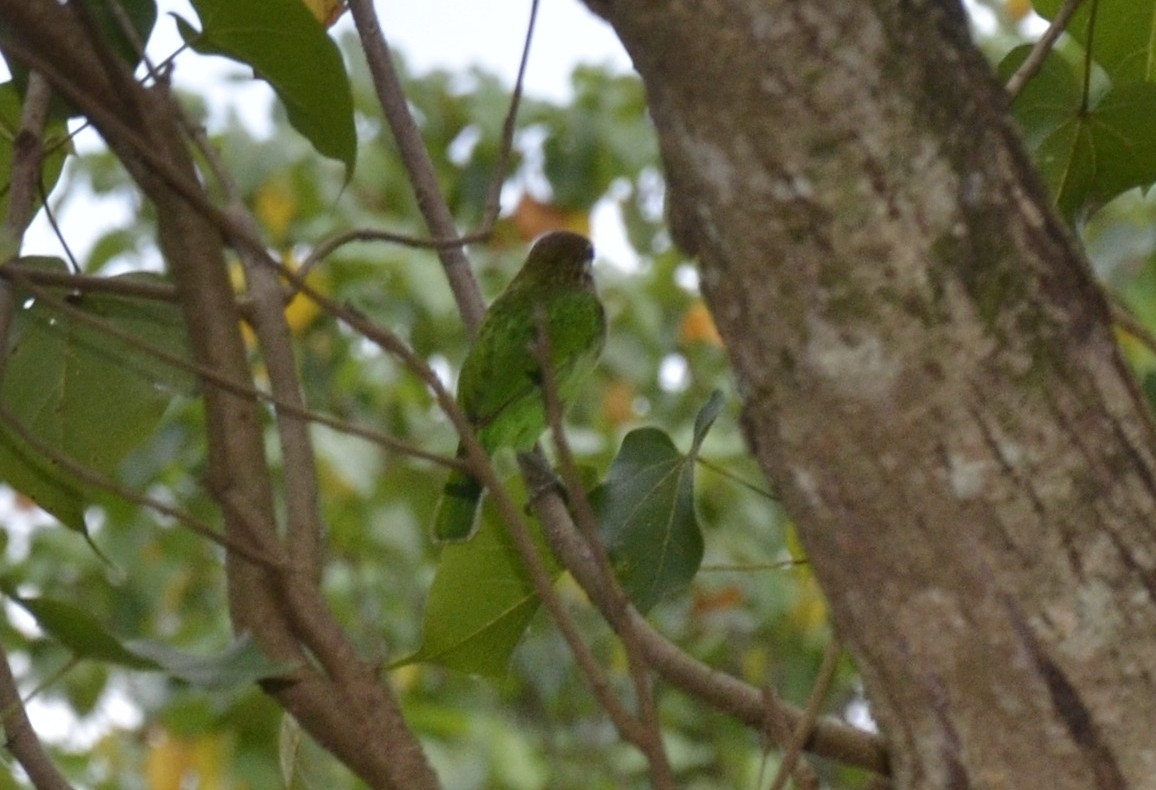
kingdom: Animalia
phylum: Chordata
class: Aves
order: Piciformes
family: Megalaimidae
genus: Psilopogon
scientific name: Psilopogon viridis
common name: White-cheeked barbet
